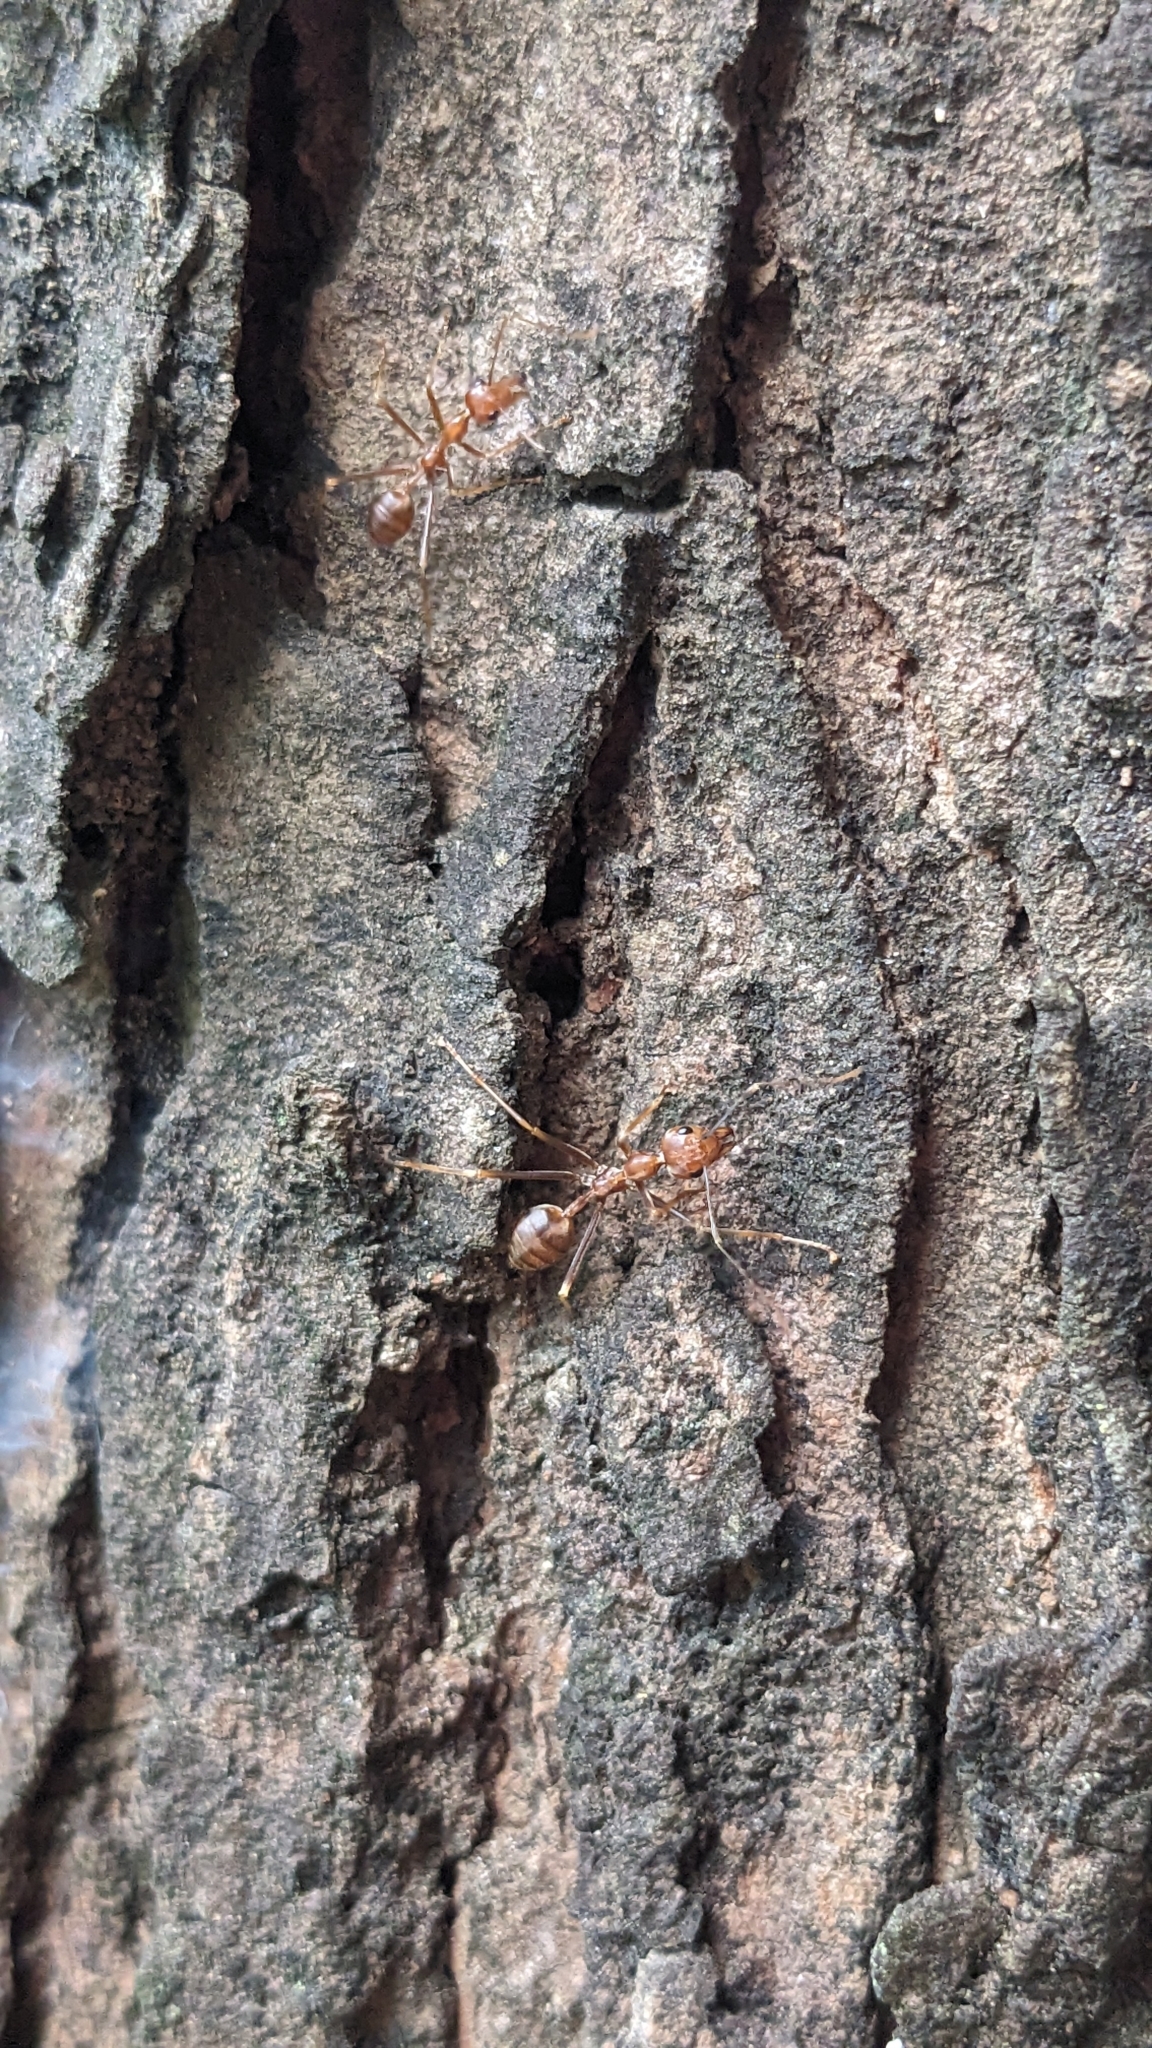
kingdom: Animalia
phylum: Arthropoda
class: Insecta
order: Hymenoptera
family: Formicidae
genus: Oecophylla
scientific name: Oecophylla smaragdina
